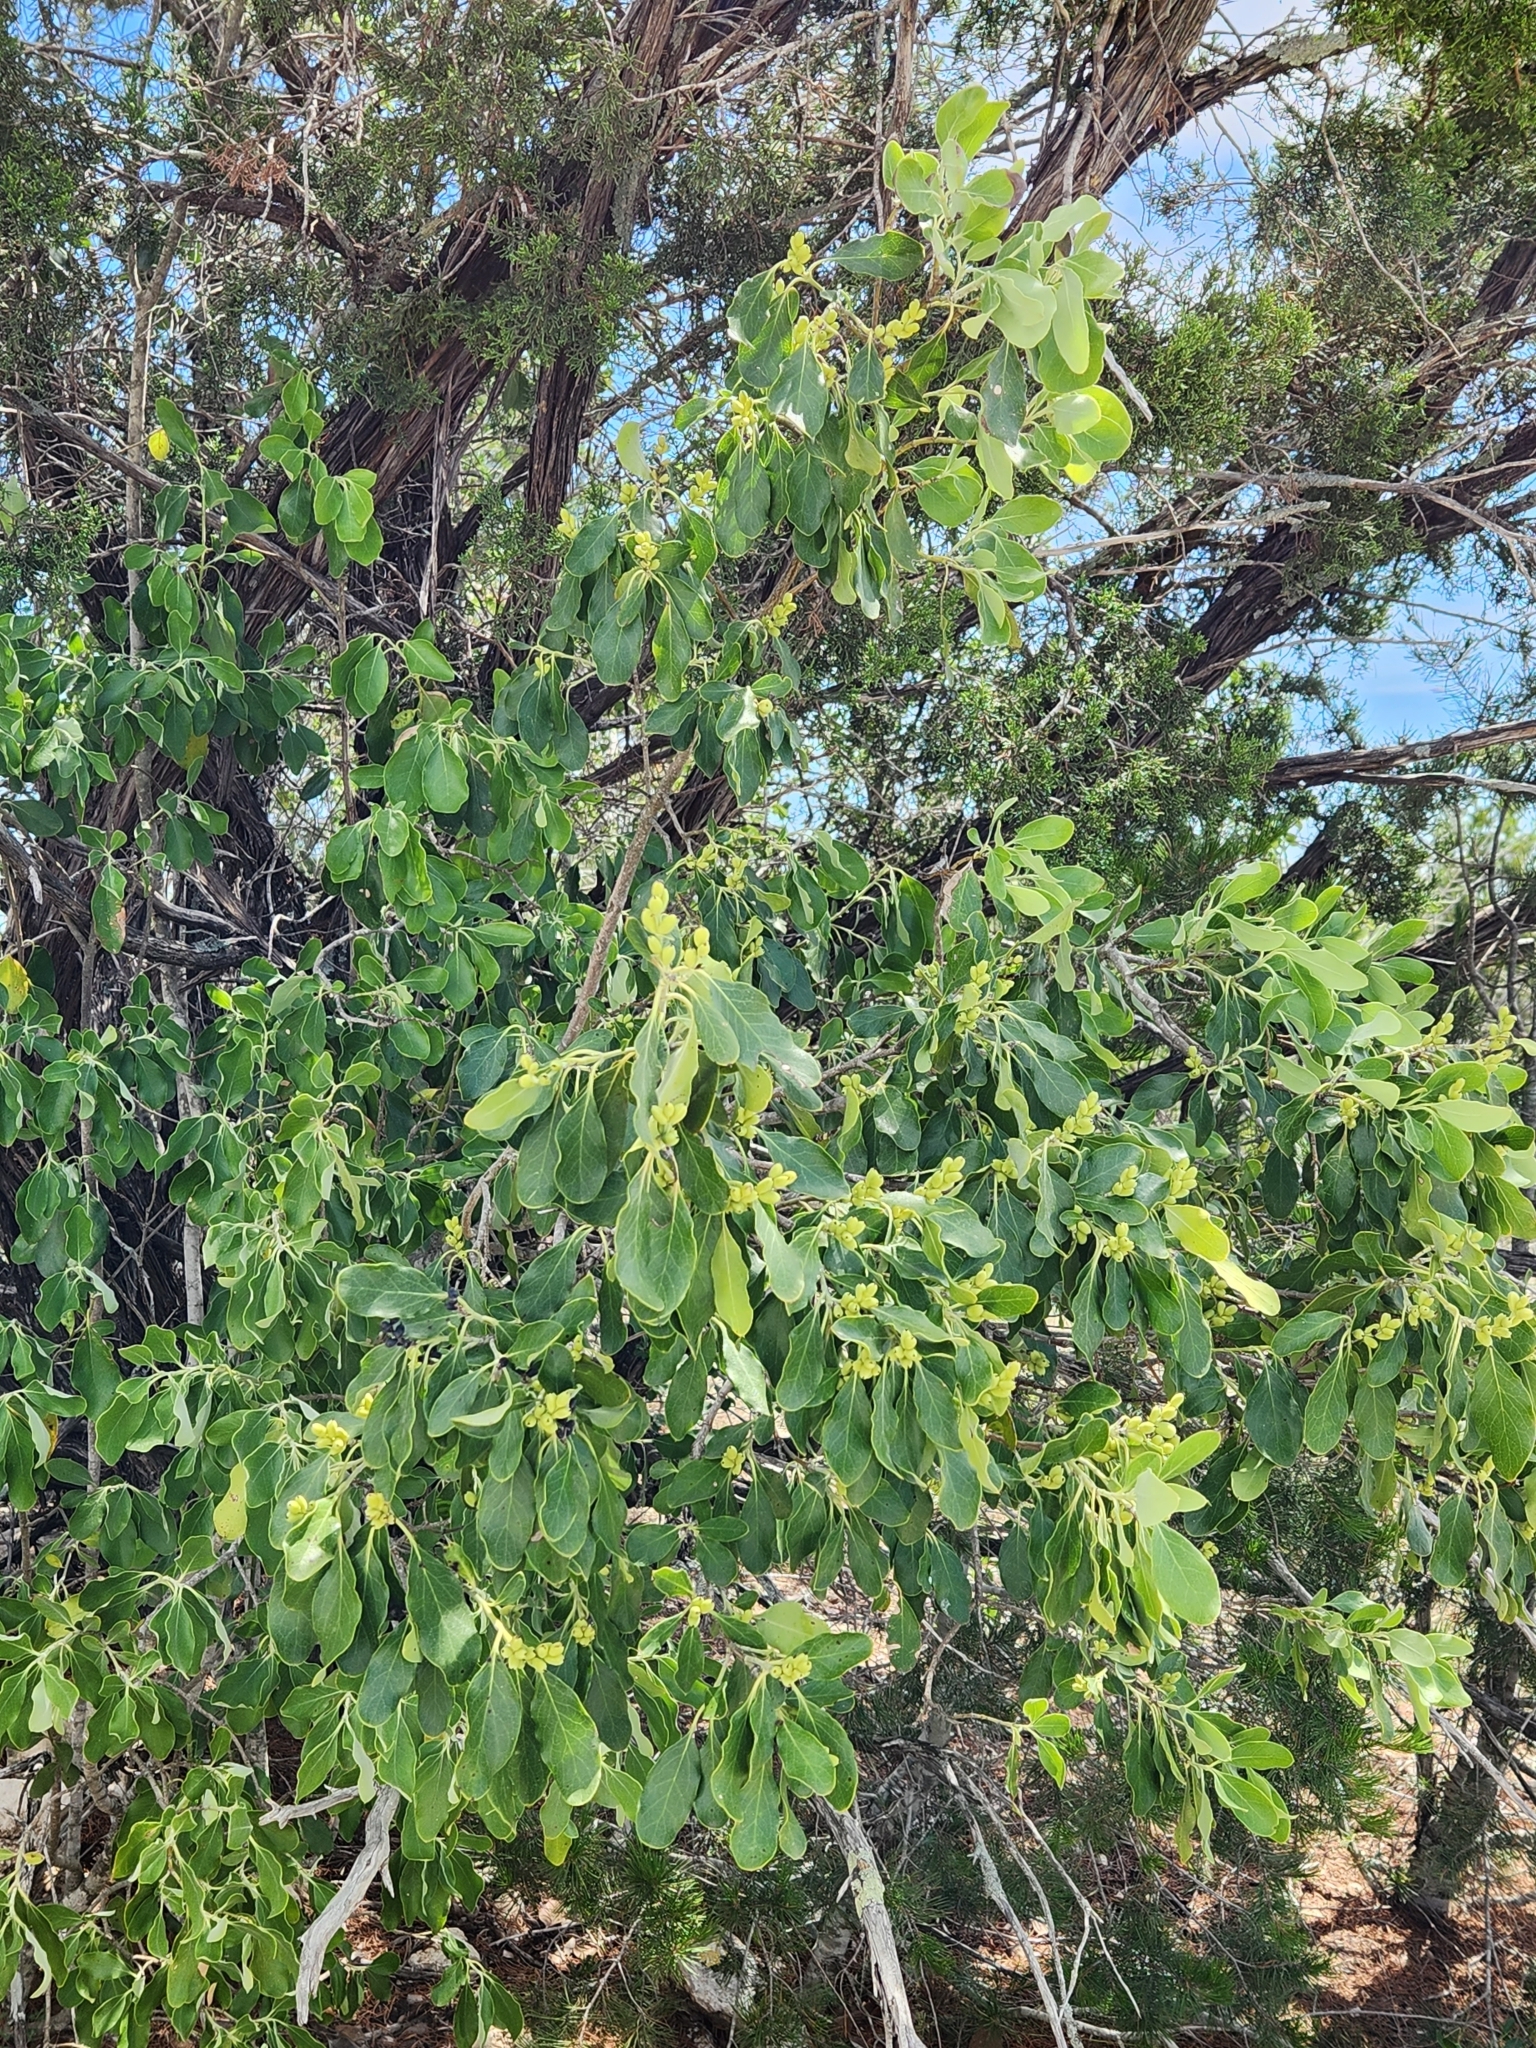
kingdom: Plantae
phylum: Tracheophyta
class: Magnoliopsida
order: Garryales
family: Garryaceae
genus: Garrya
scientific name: Garrya lindheimeri
